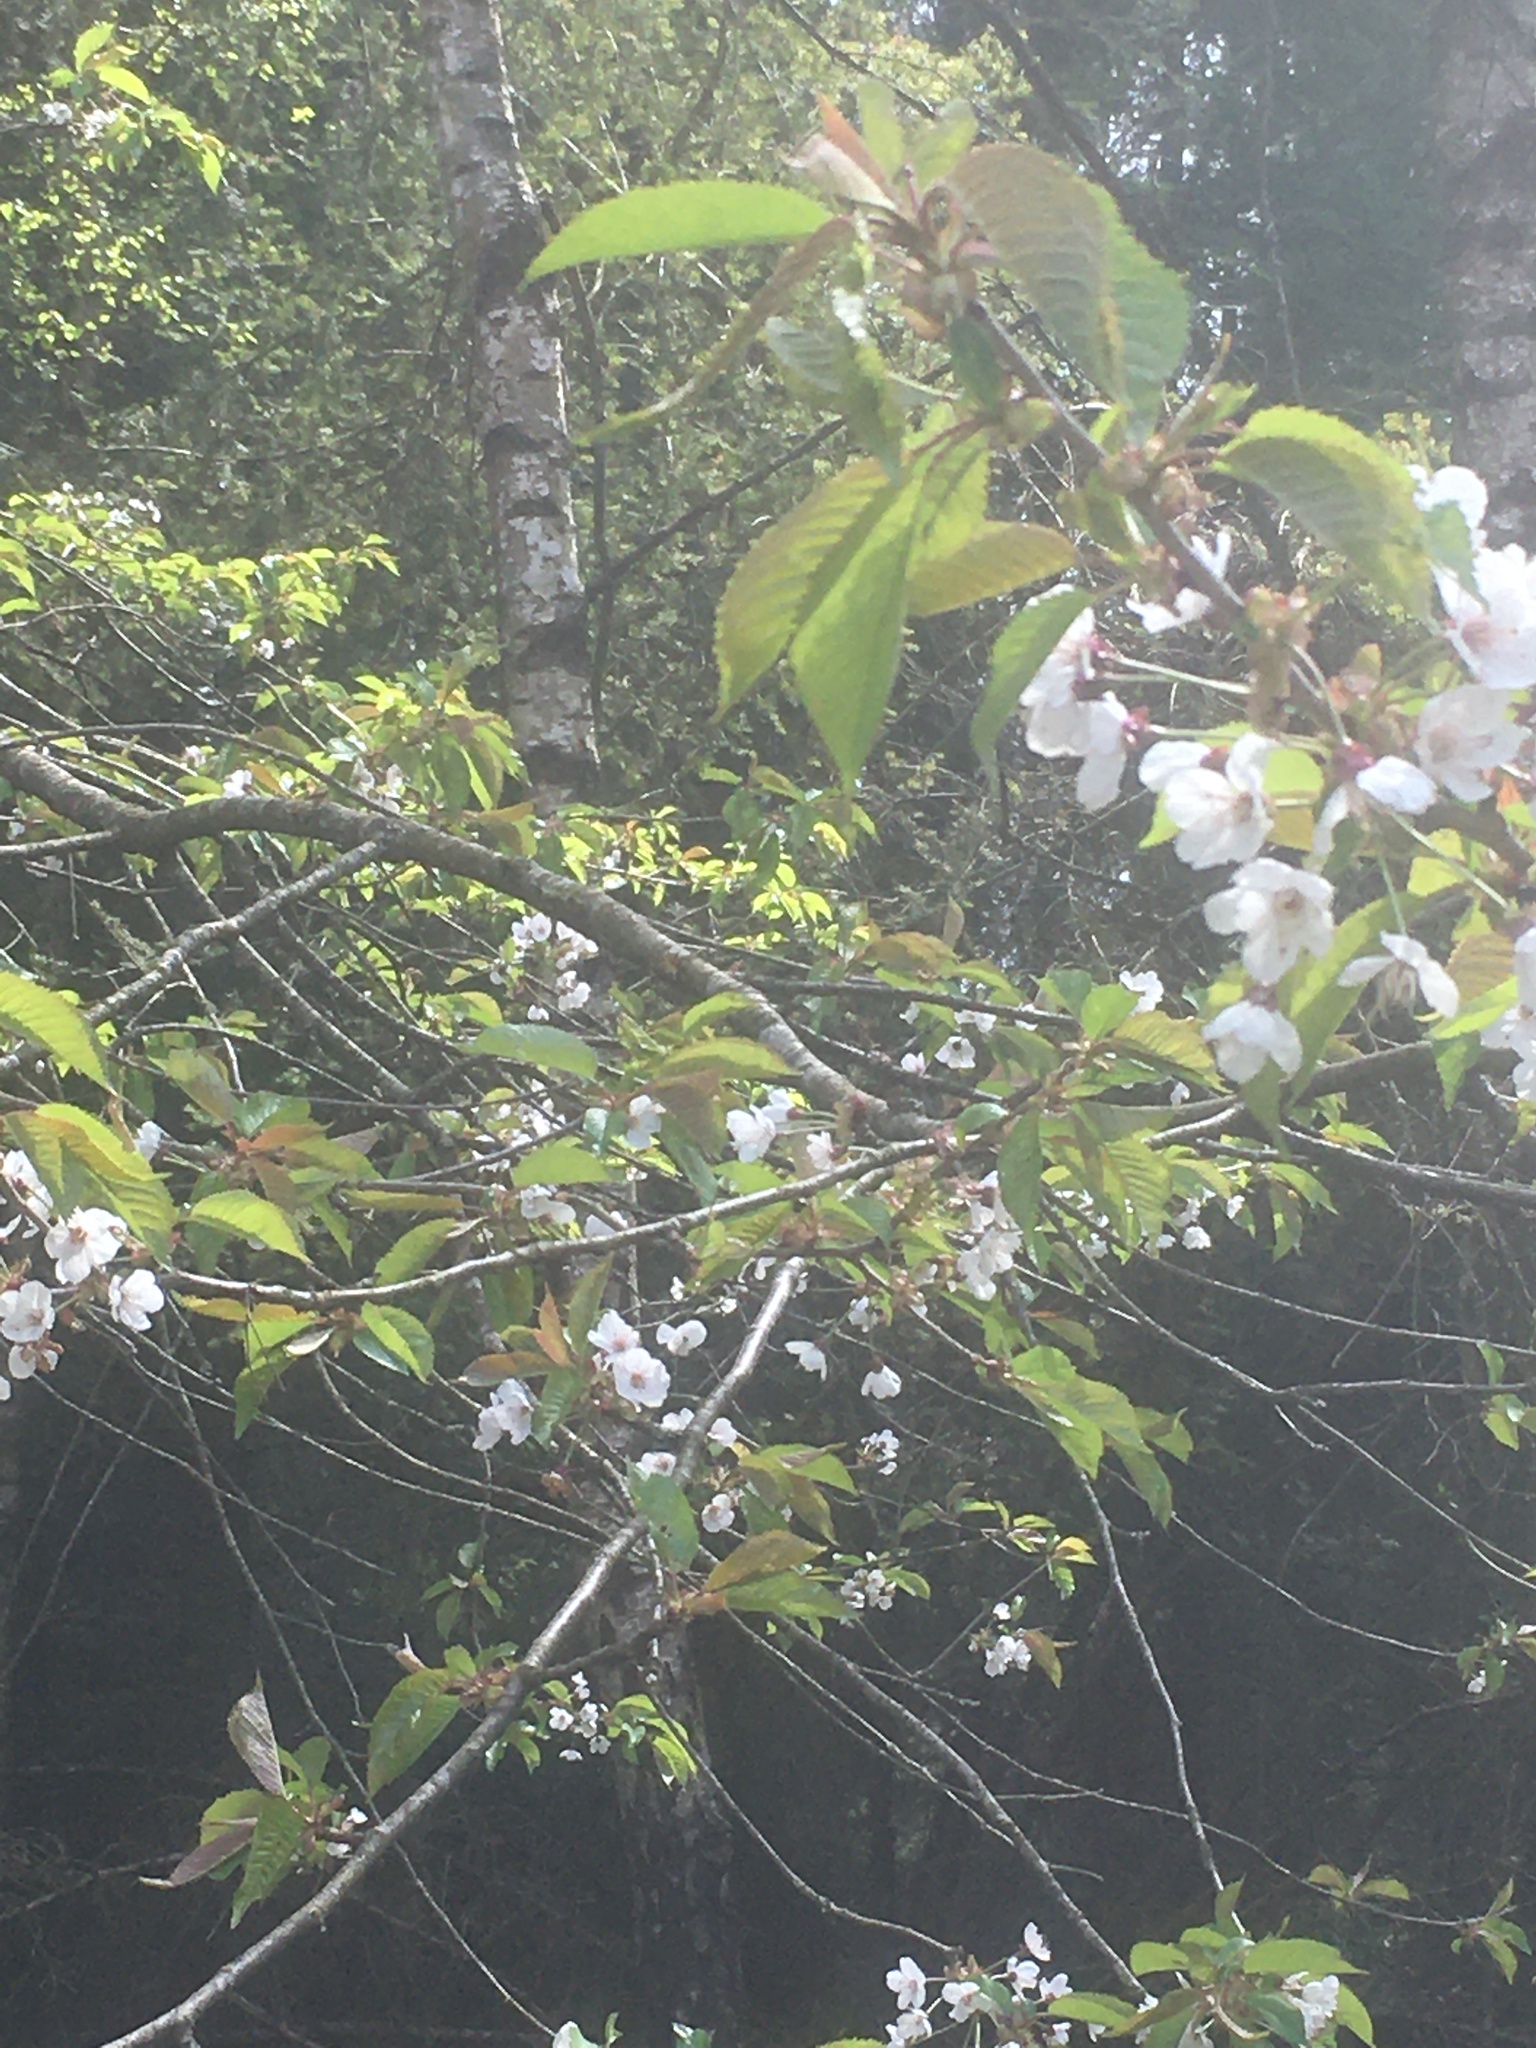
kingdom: Plantae
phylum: Tracheophyta
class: Magnoliopsida
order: Rosales
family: Rosaceae
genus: Prunus
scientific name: Prunus avium
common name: Sweet cherry
